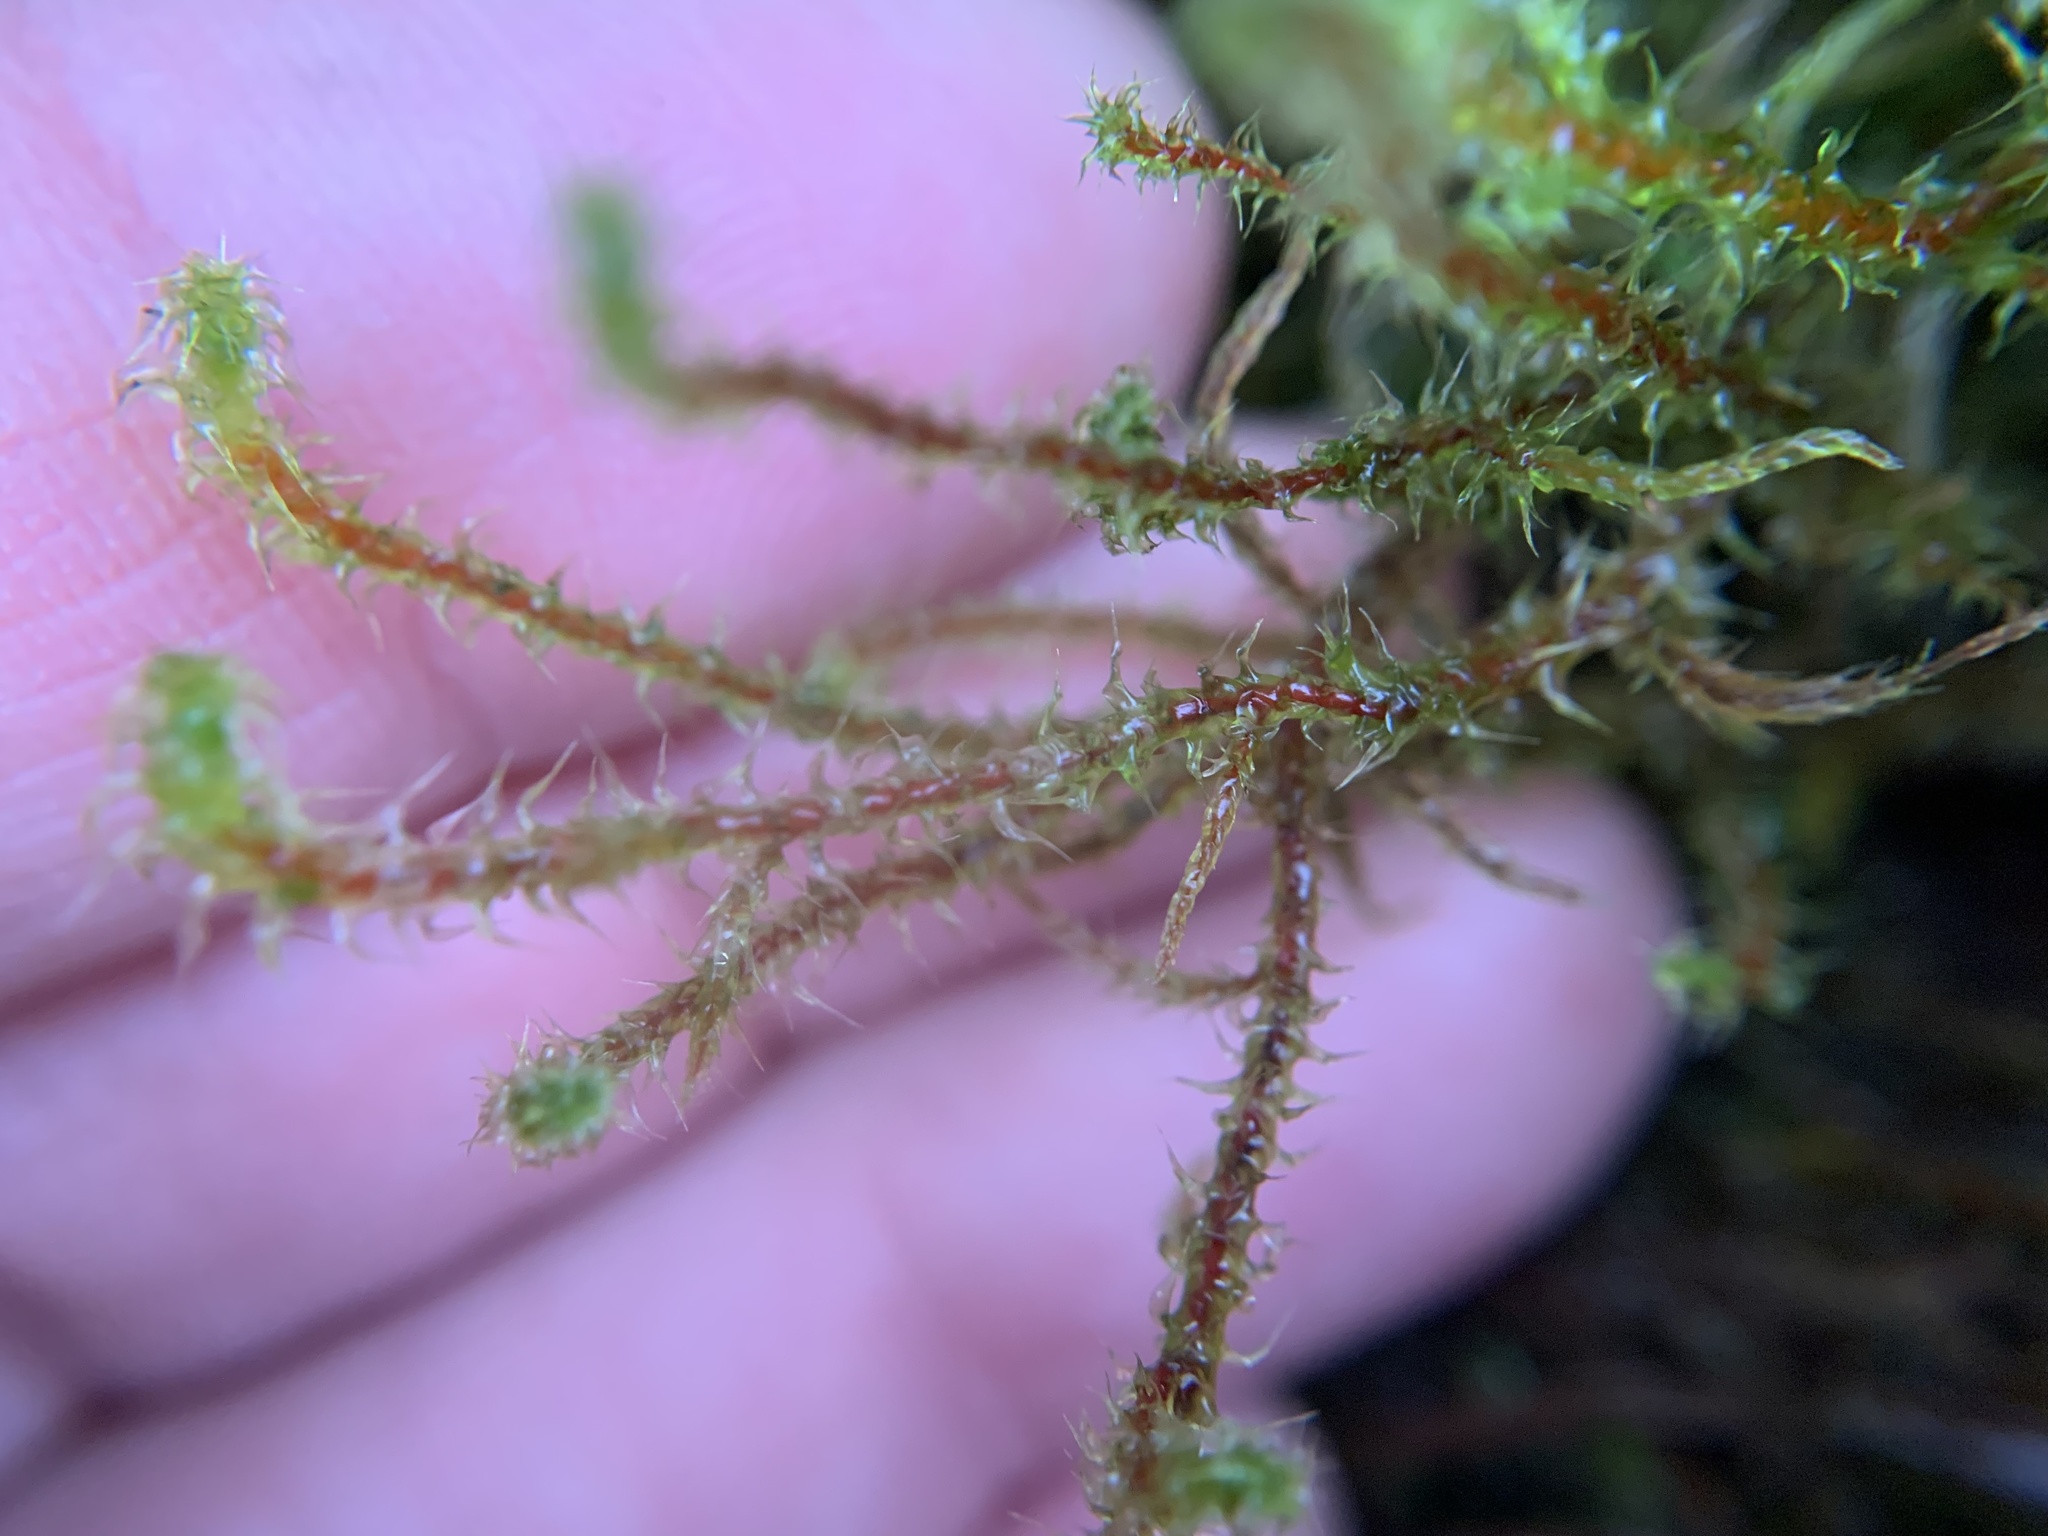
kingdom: Plantae
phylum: Bryophyta
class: Bryopsida
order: Hypnales
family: Hylocomiaceae
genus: Rhytidiadelphus
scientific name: Rhytidiadelphus squarrosus
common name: Springy turf-moss
